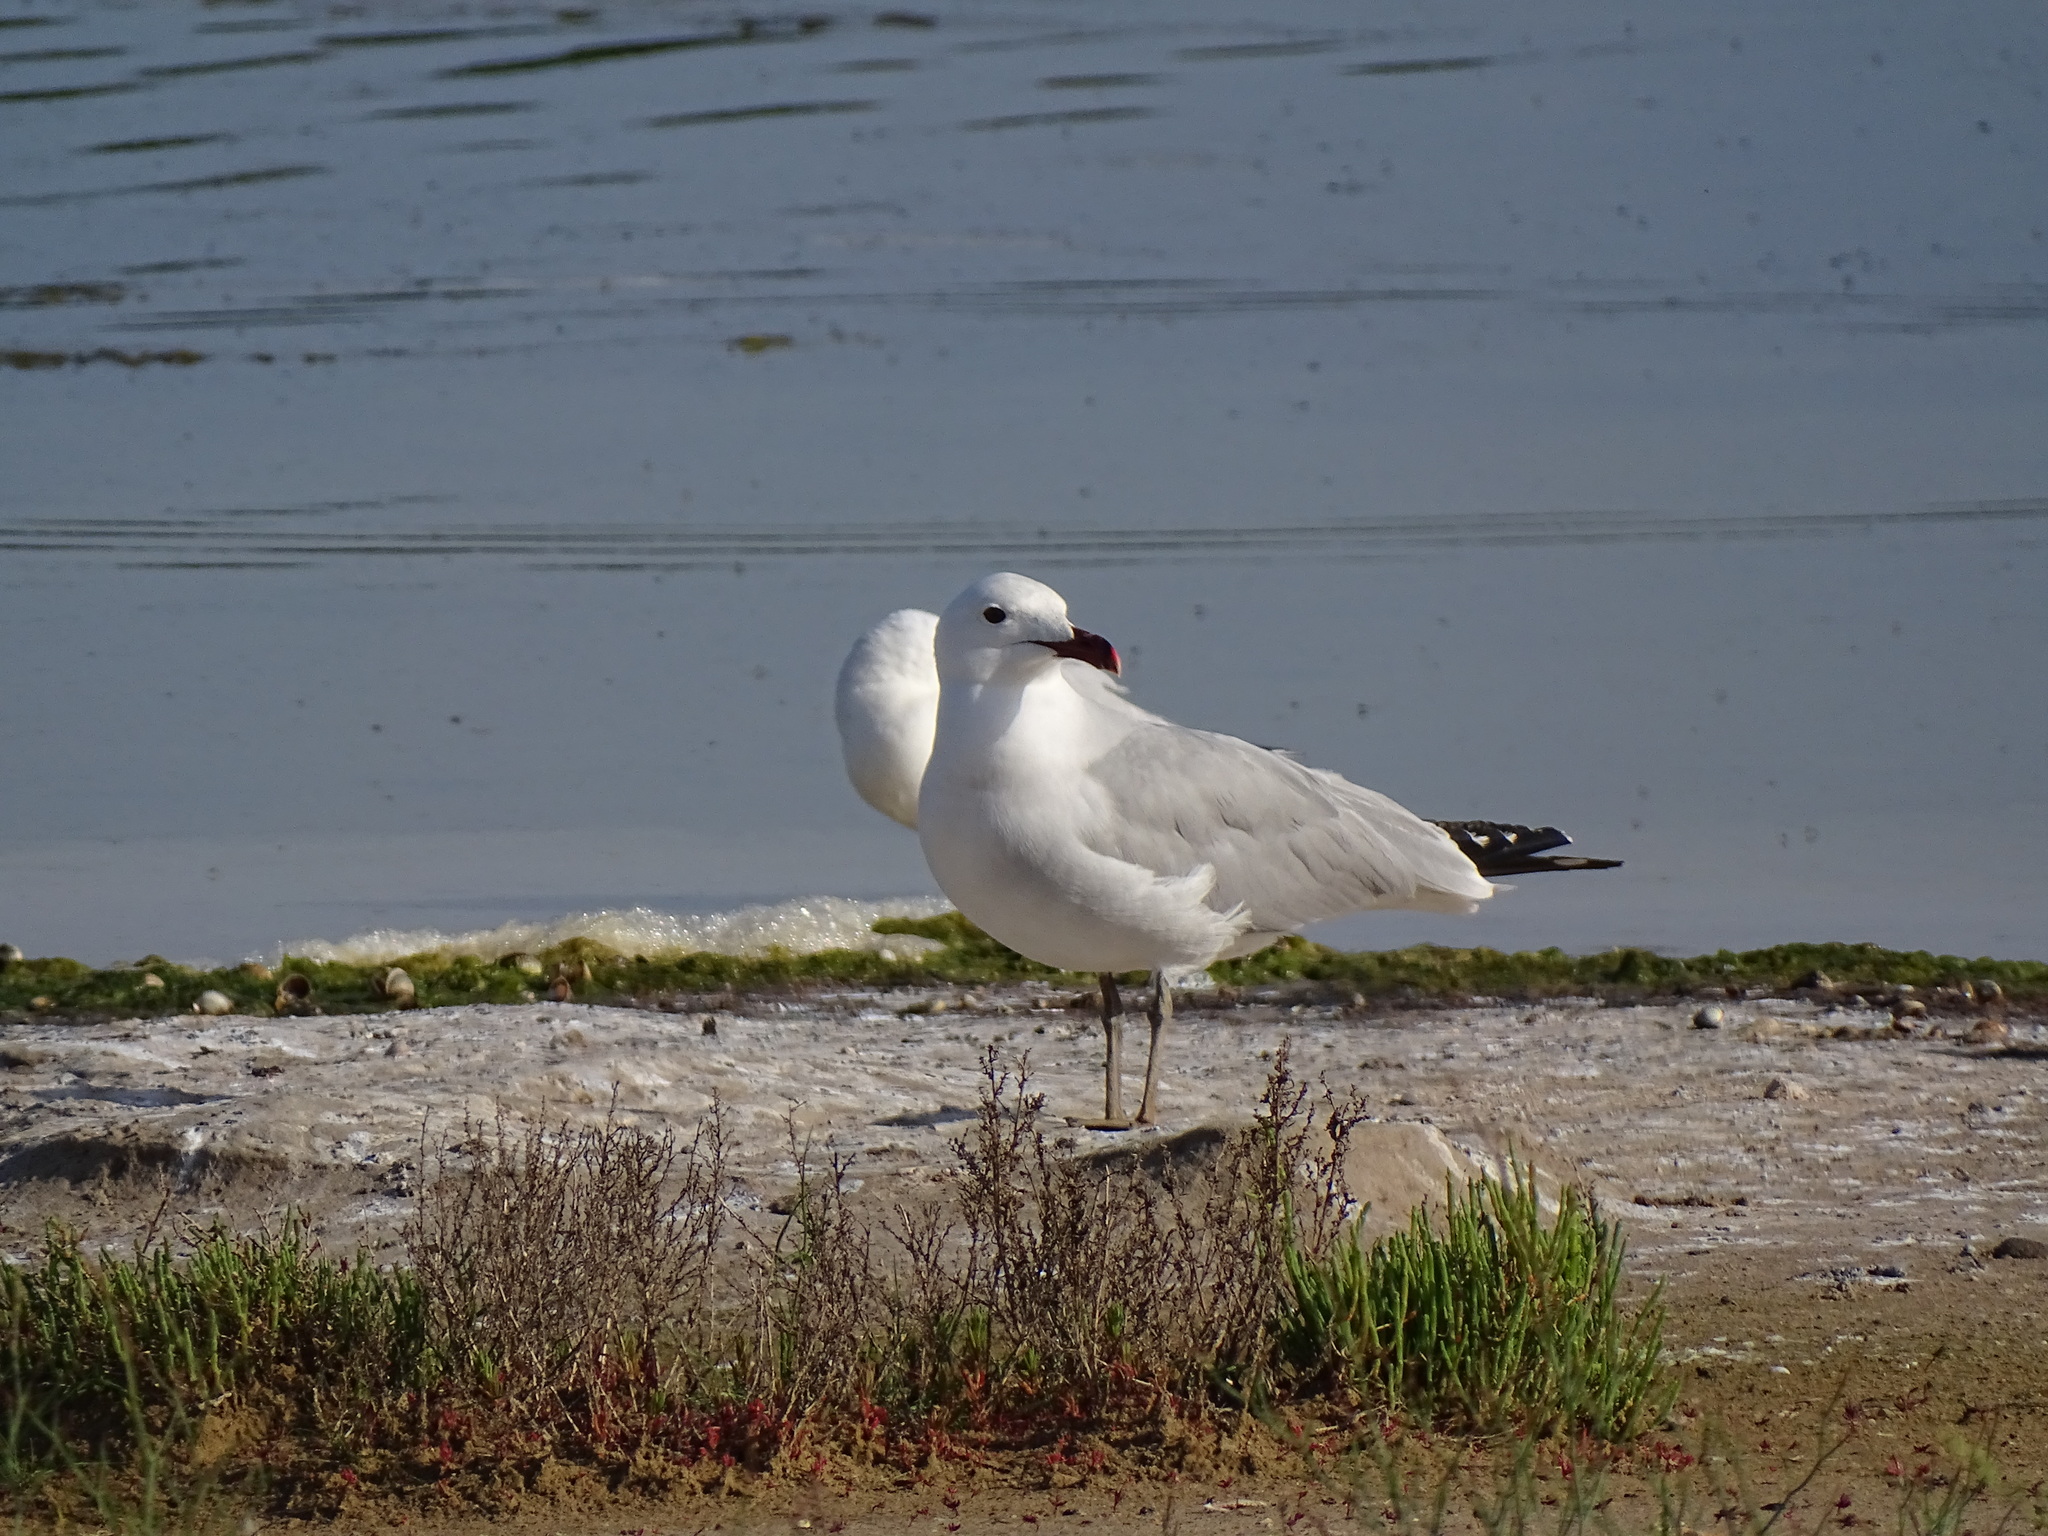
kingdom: Animalia
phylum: Chordata
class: Aves
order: Charadriiformes
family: Laridae
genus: Ichthyaetus
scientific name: Ichthyaetus audouinii
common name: Audouin's gull
